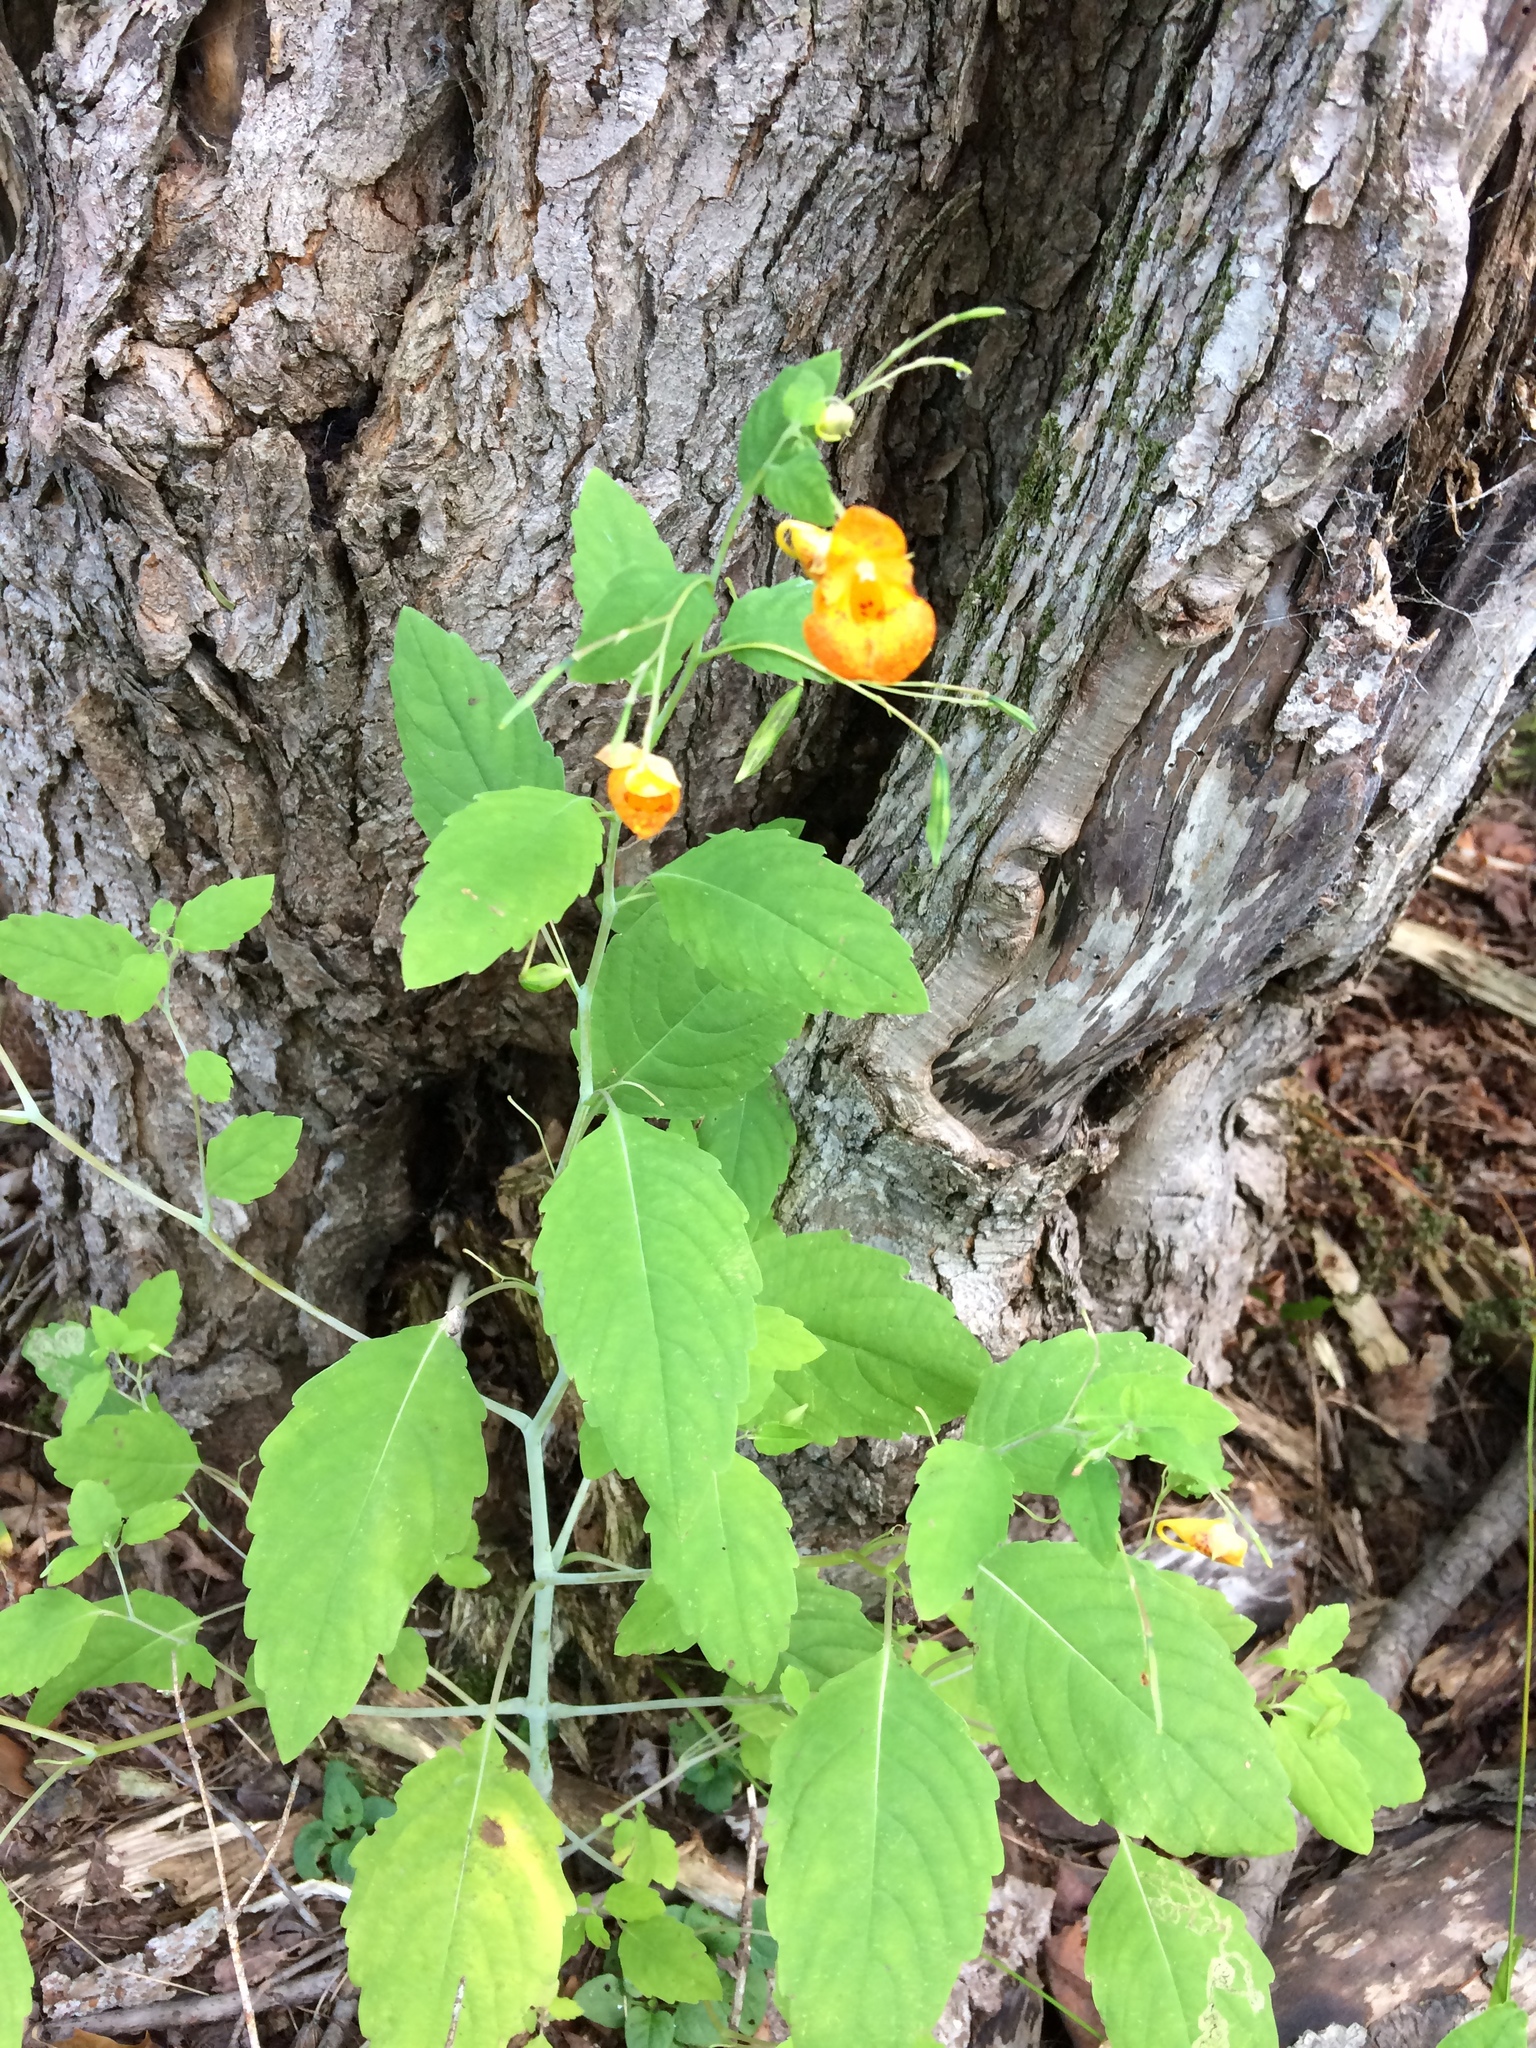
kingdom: Plantae
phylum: Tracheophyta
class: Magnoliopsida
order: Ericales
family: Balsaminaceae
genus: Impatiens
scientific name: Impatiens capensis
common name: Orange balsam
